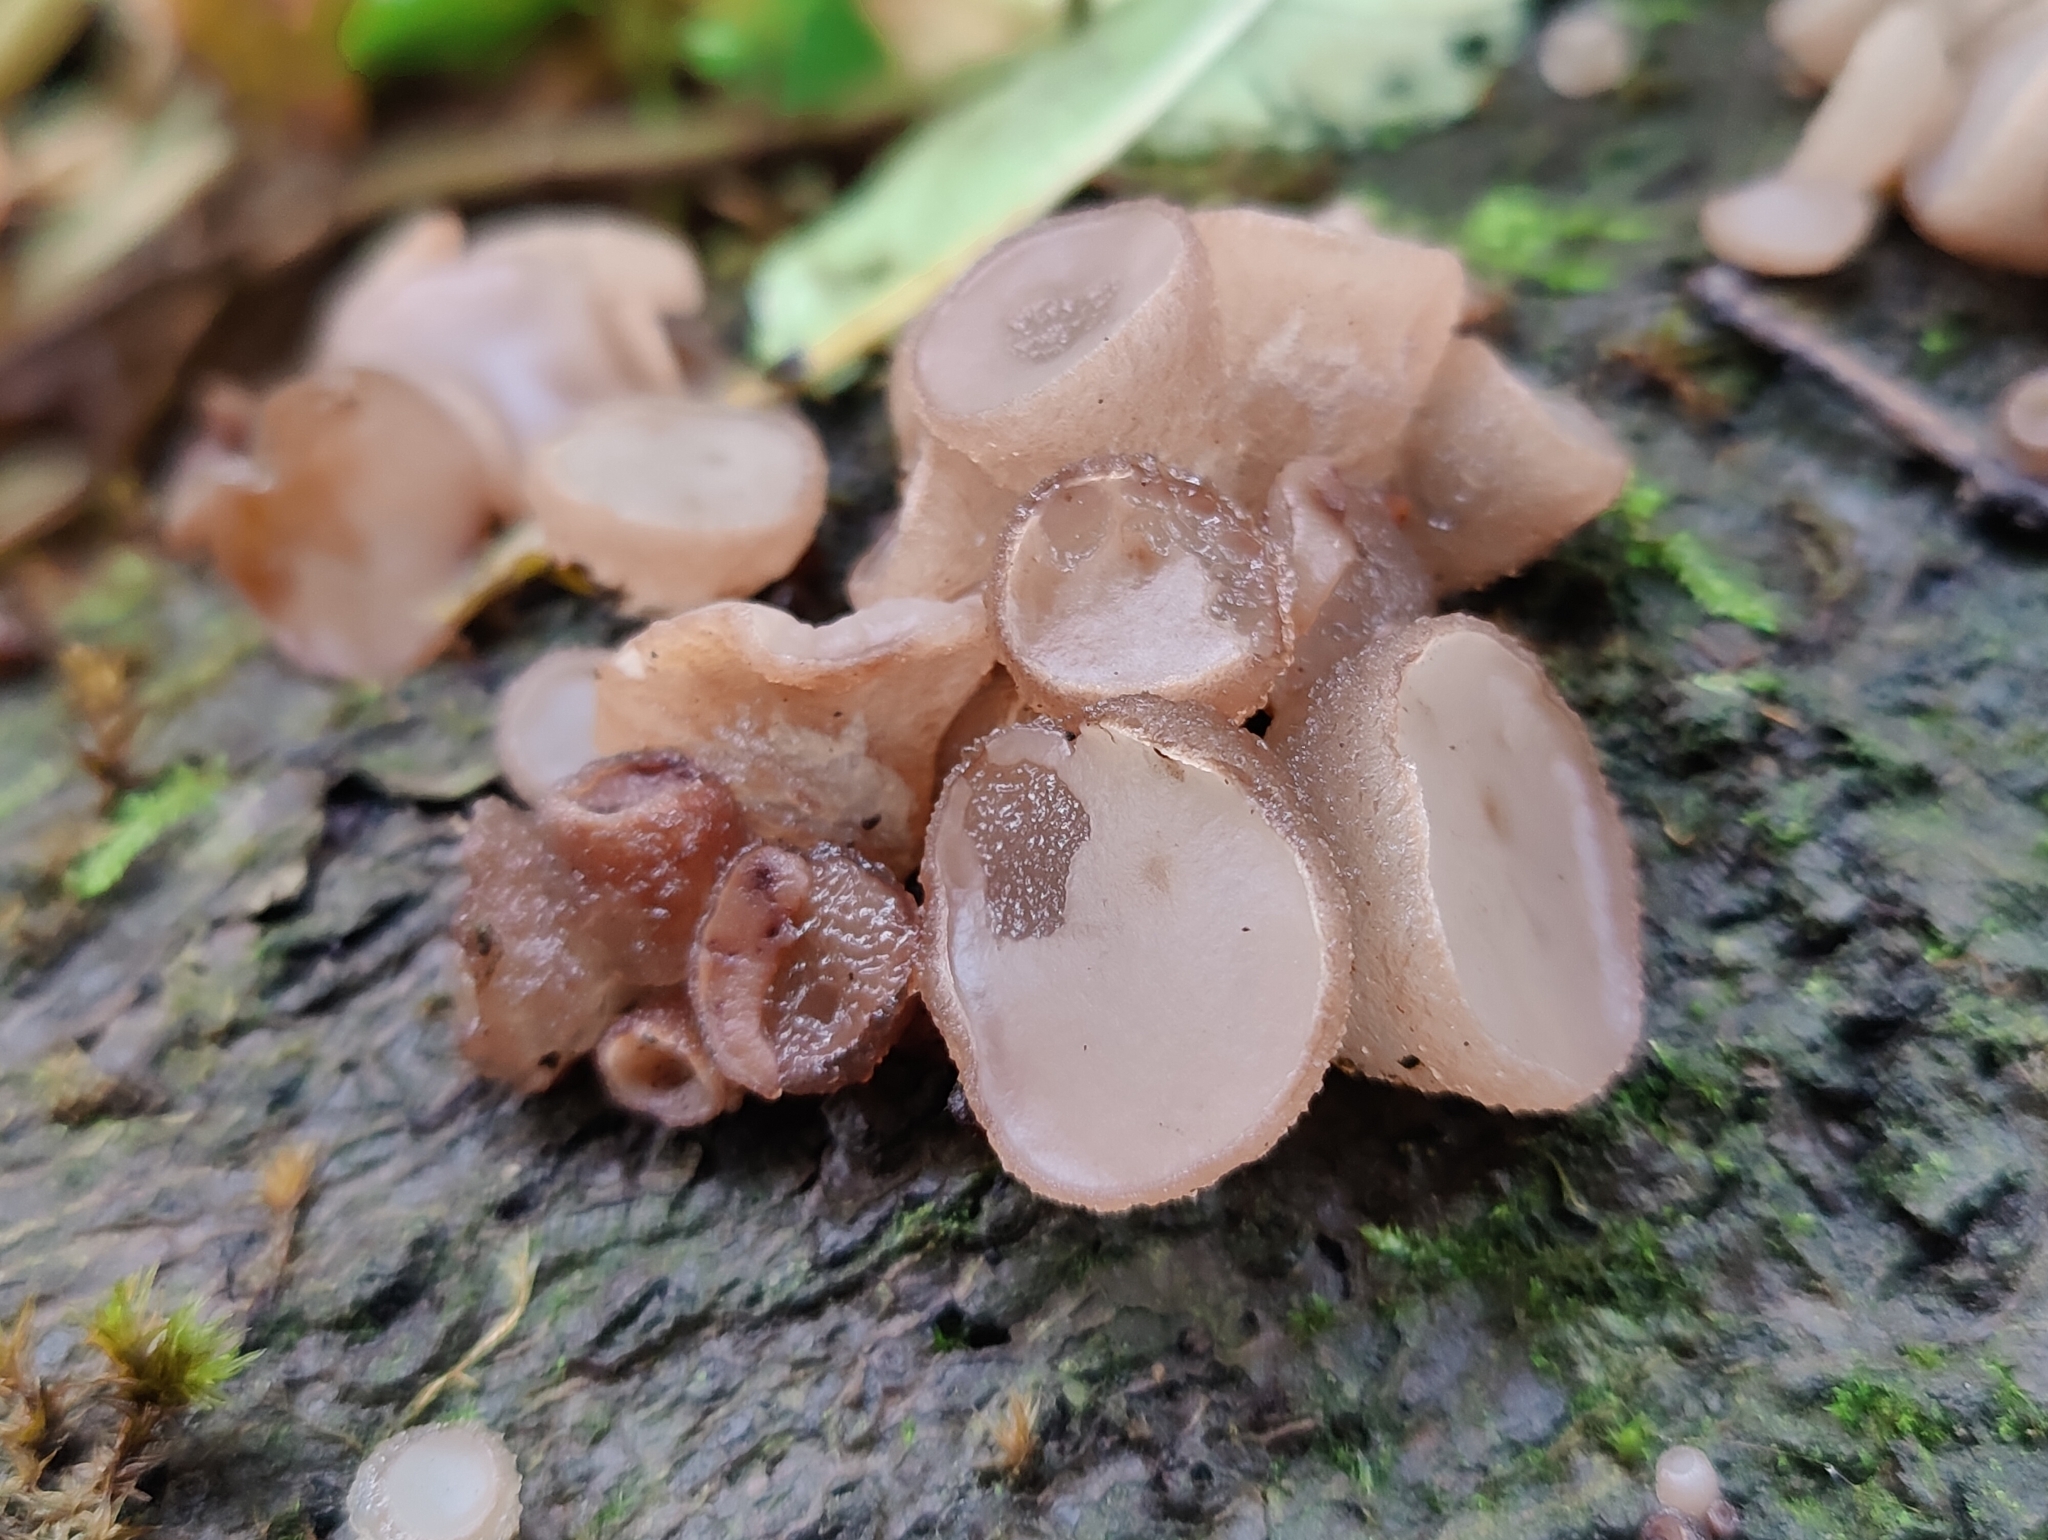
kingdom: Fungi
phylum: Ascomycota
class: Leotiomycetes
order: Helotiales
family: Gelatinodiscaceae
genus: Neobulgaria
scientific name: Neobulgaria pura
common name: Beech jelly-disc
